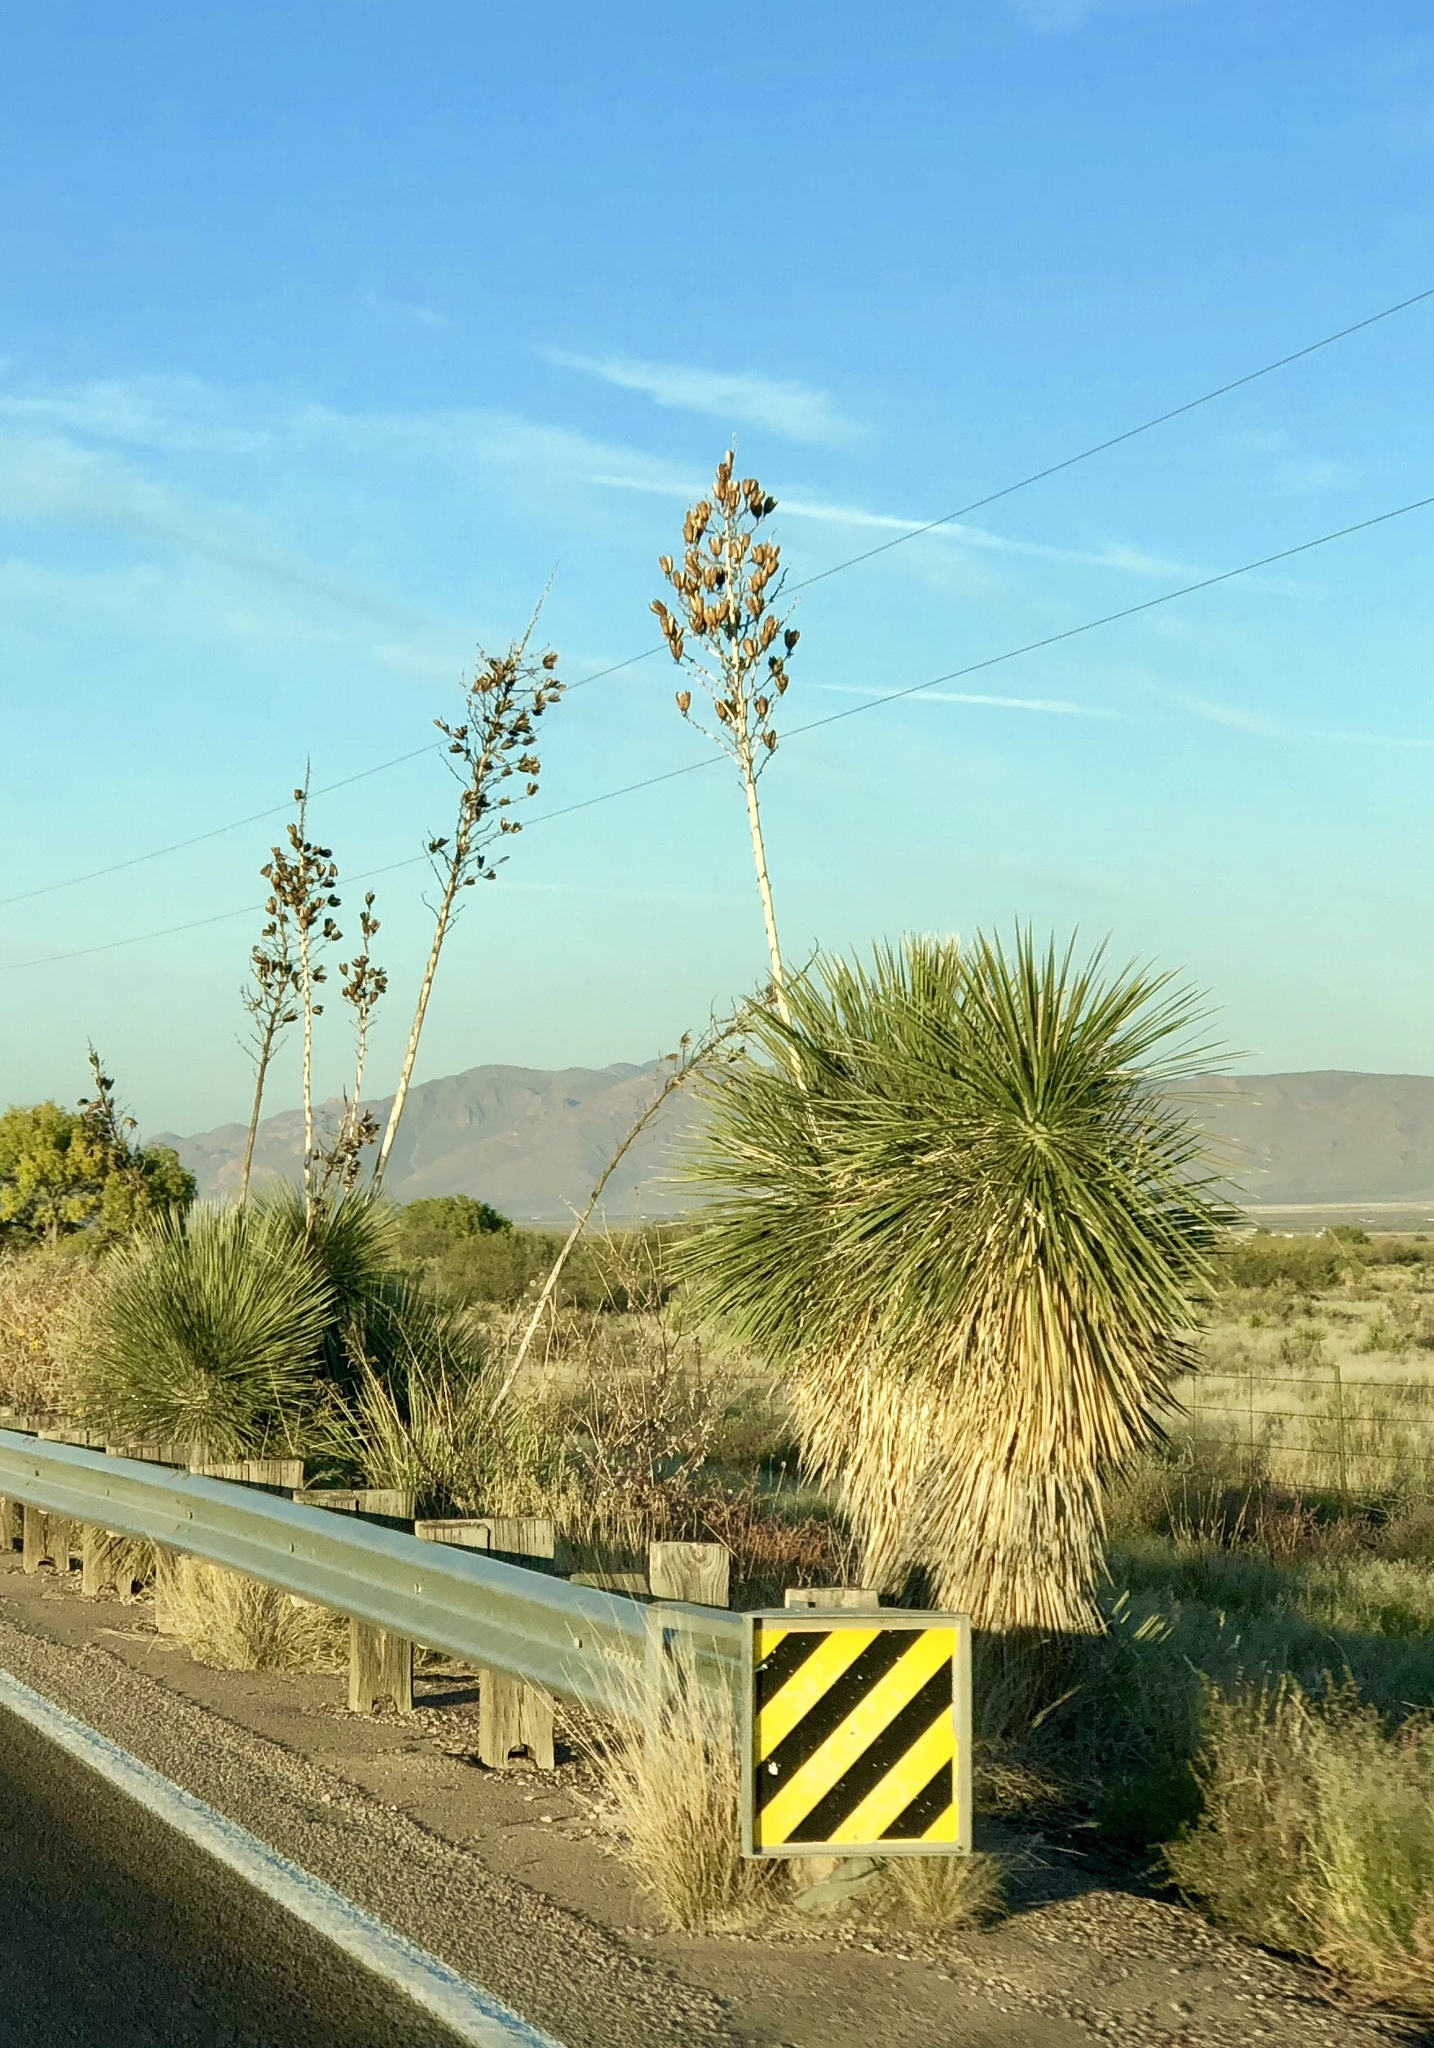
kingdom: Plantae
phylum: Tracheophyta
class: Liliopsida
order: Asparagales
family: Asparagaceae
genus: Yucca
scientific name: Yucca elata
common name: Palmella
